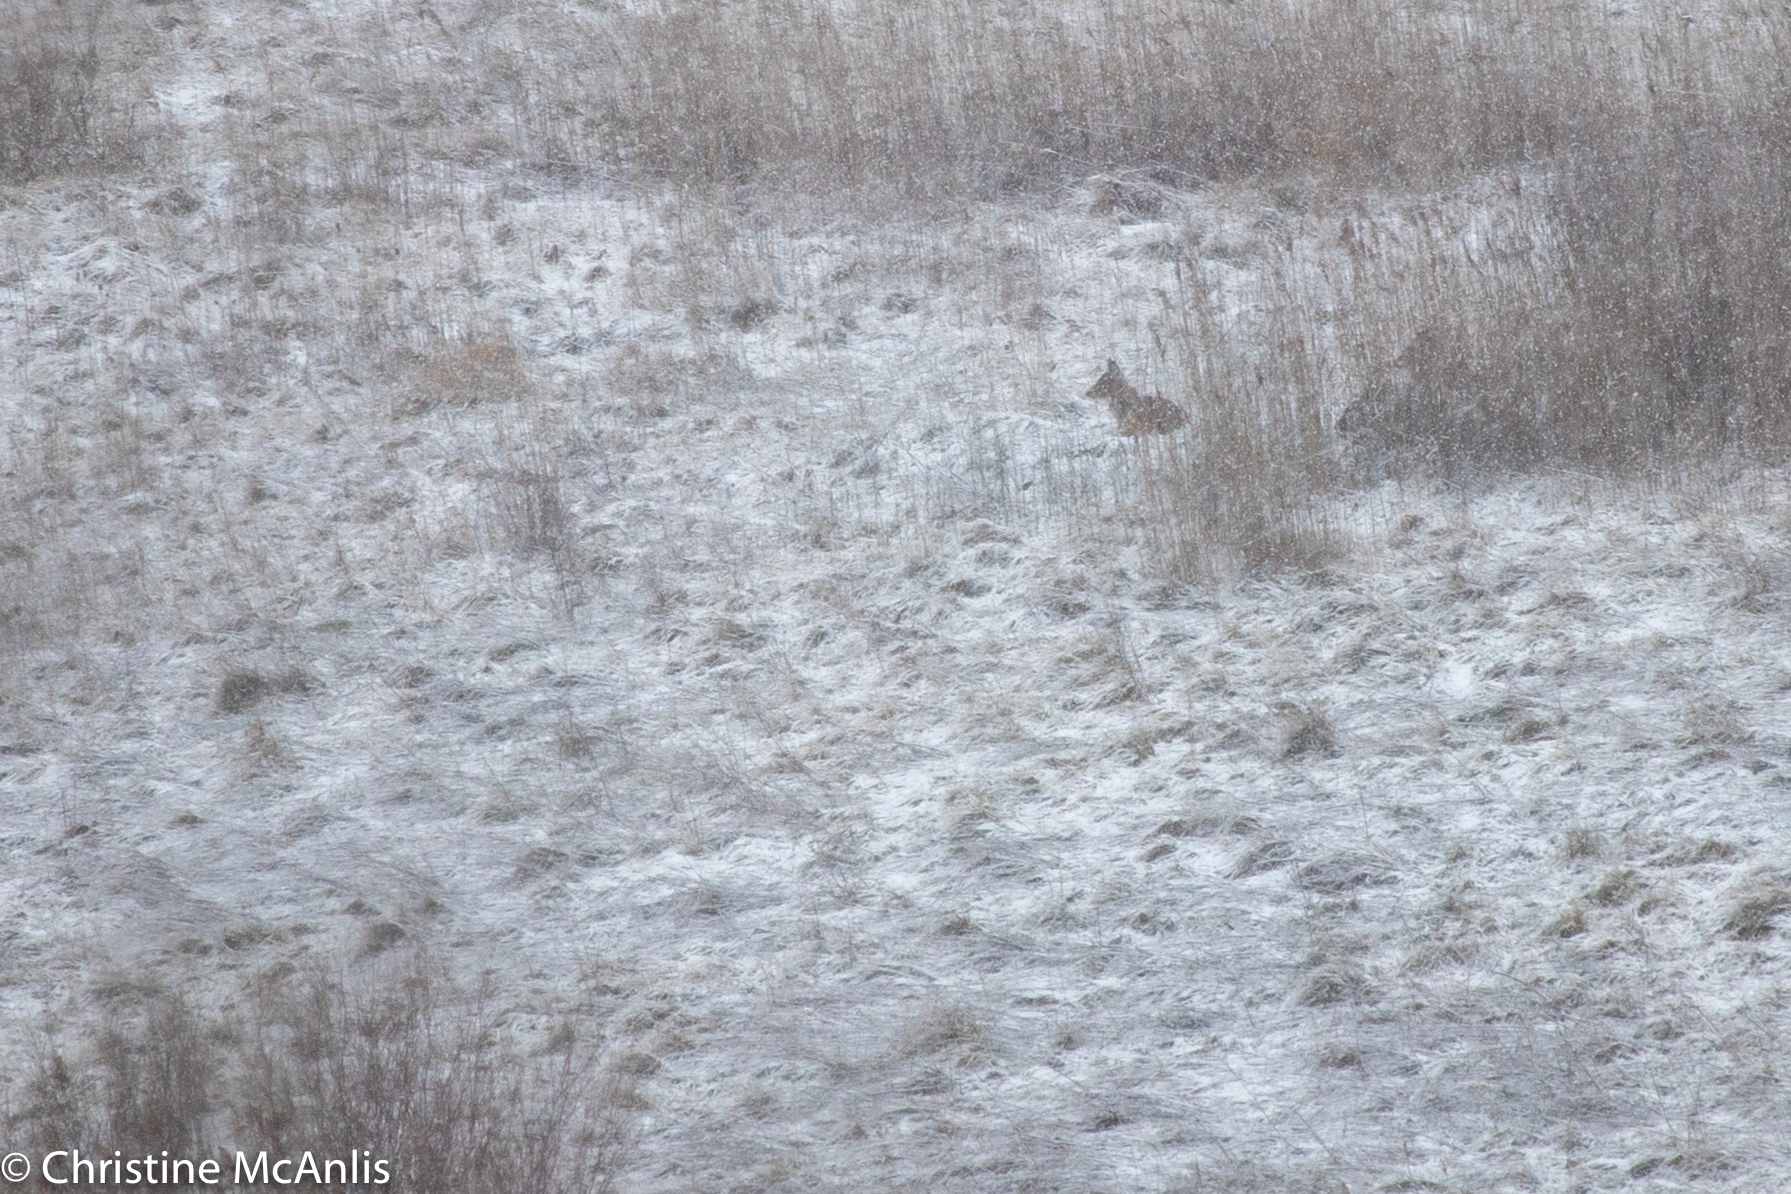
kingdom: Animalia
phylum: Chordata
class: Mammalia
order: Artiodactyla
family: Cervidae
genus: Odocoileus
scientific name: Odocoileus virginianus
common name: White-tailed deer
